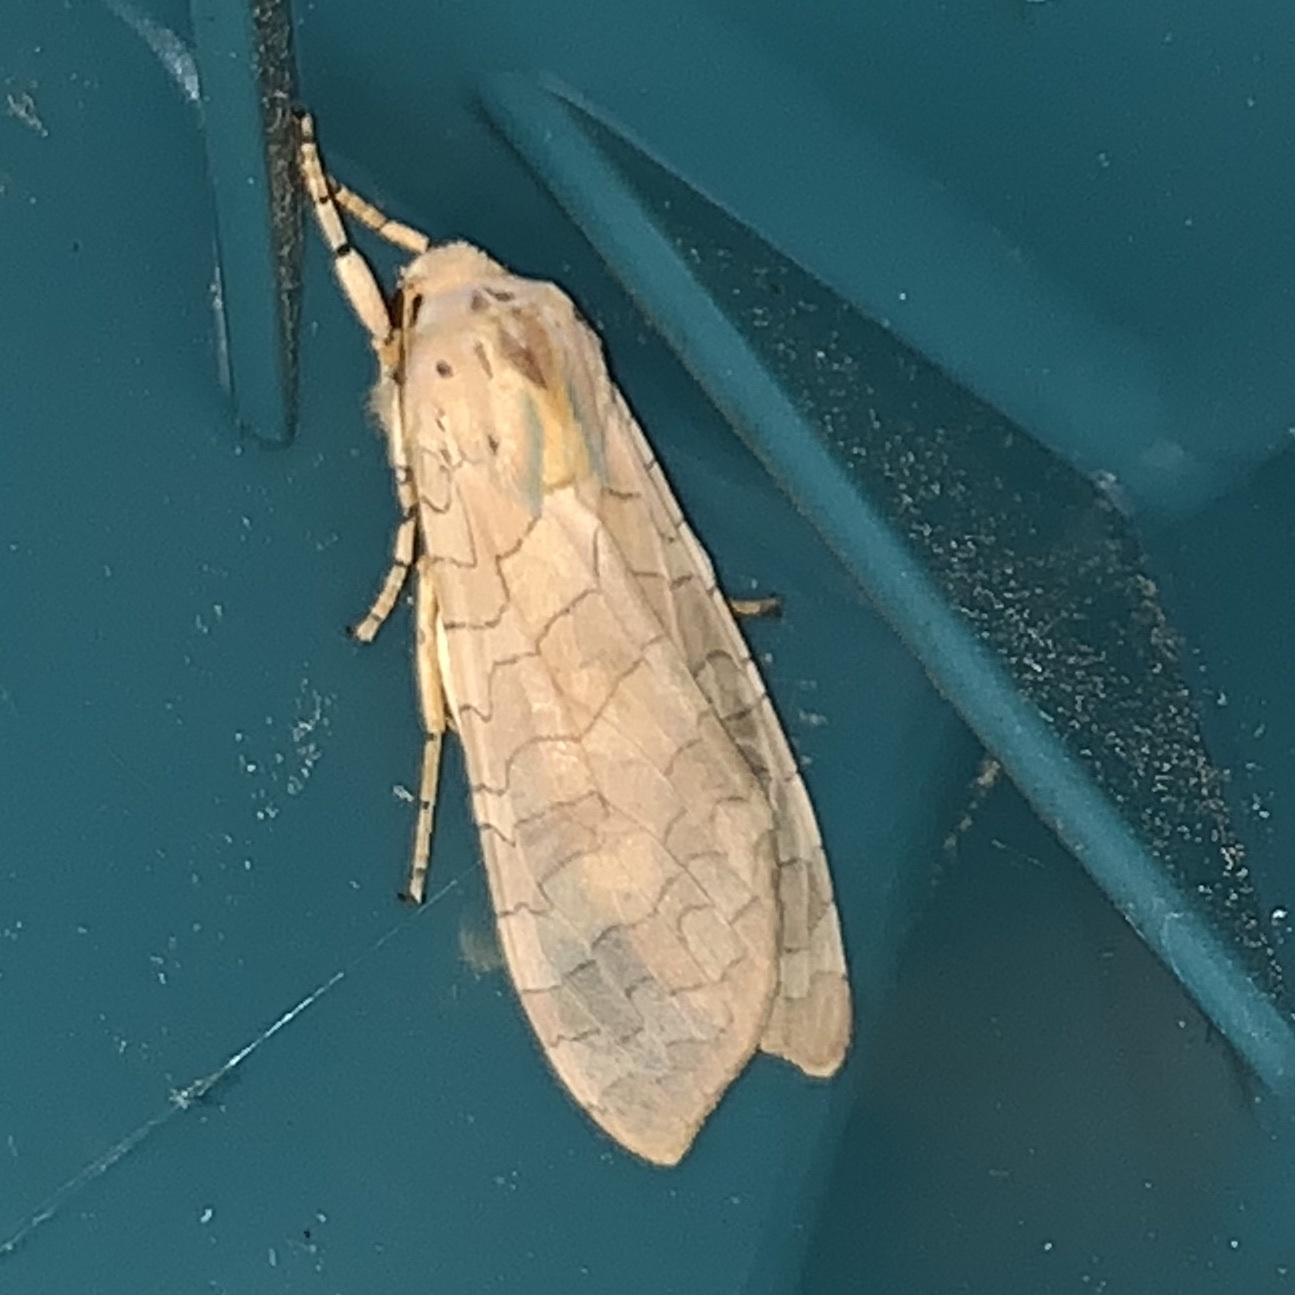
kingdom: Animalia
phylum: Arthropoda
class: Insecta
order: Lepidoptera
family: Erebidae
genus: Halysidota
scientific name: Halysidota
